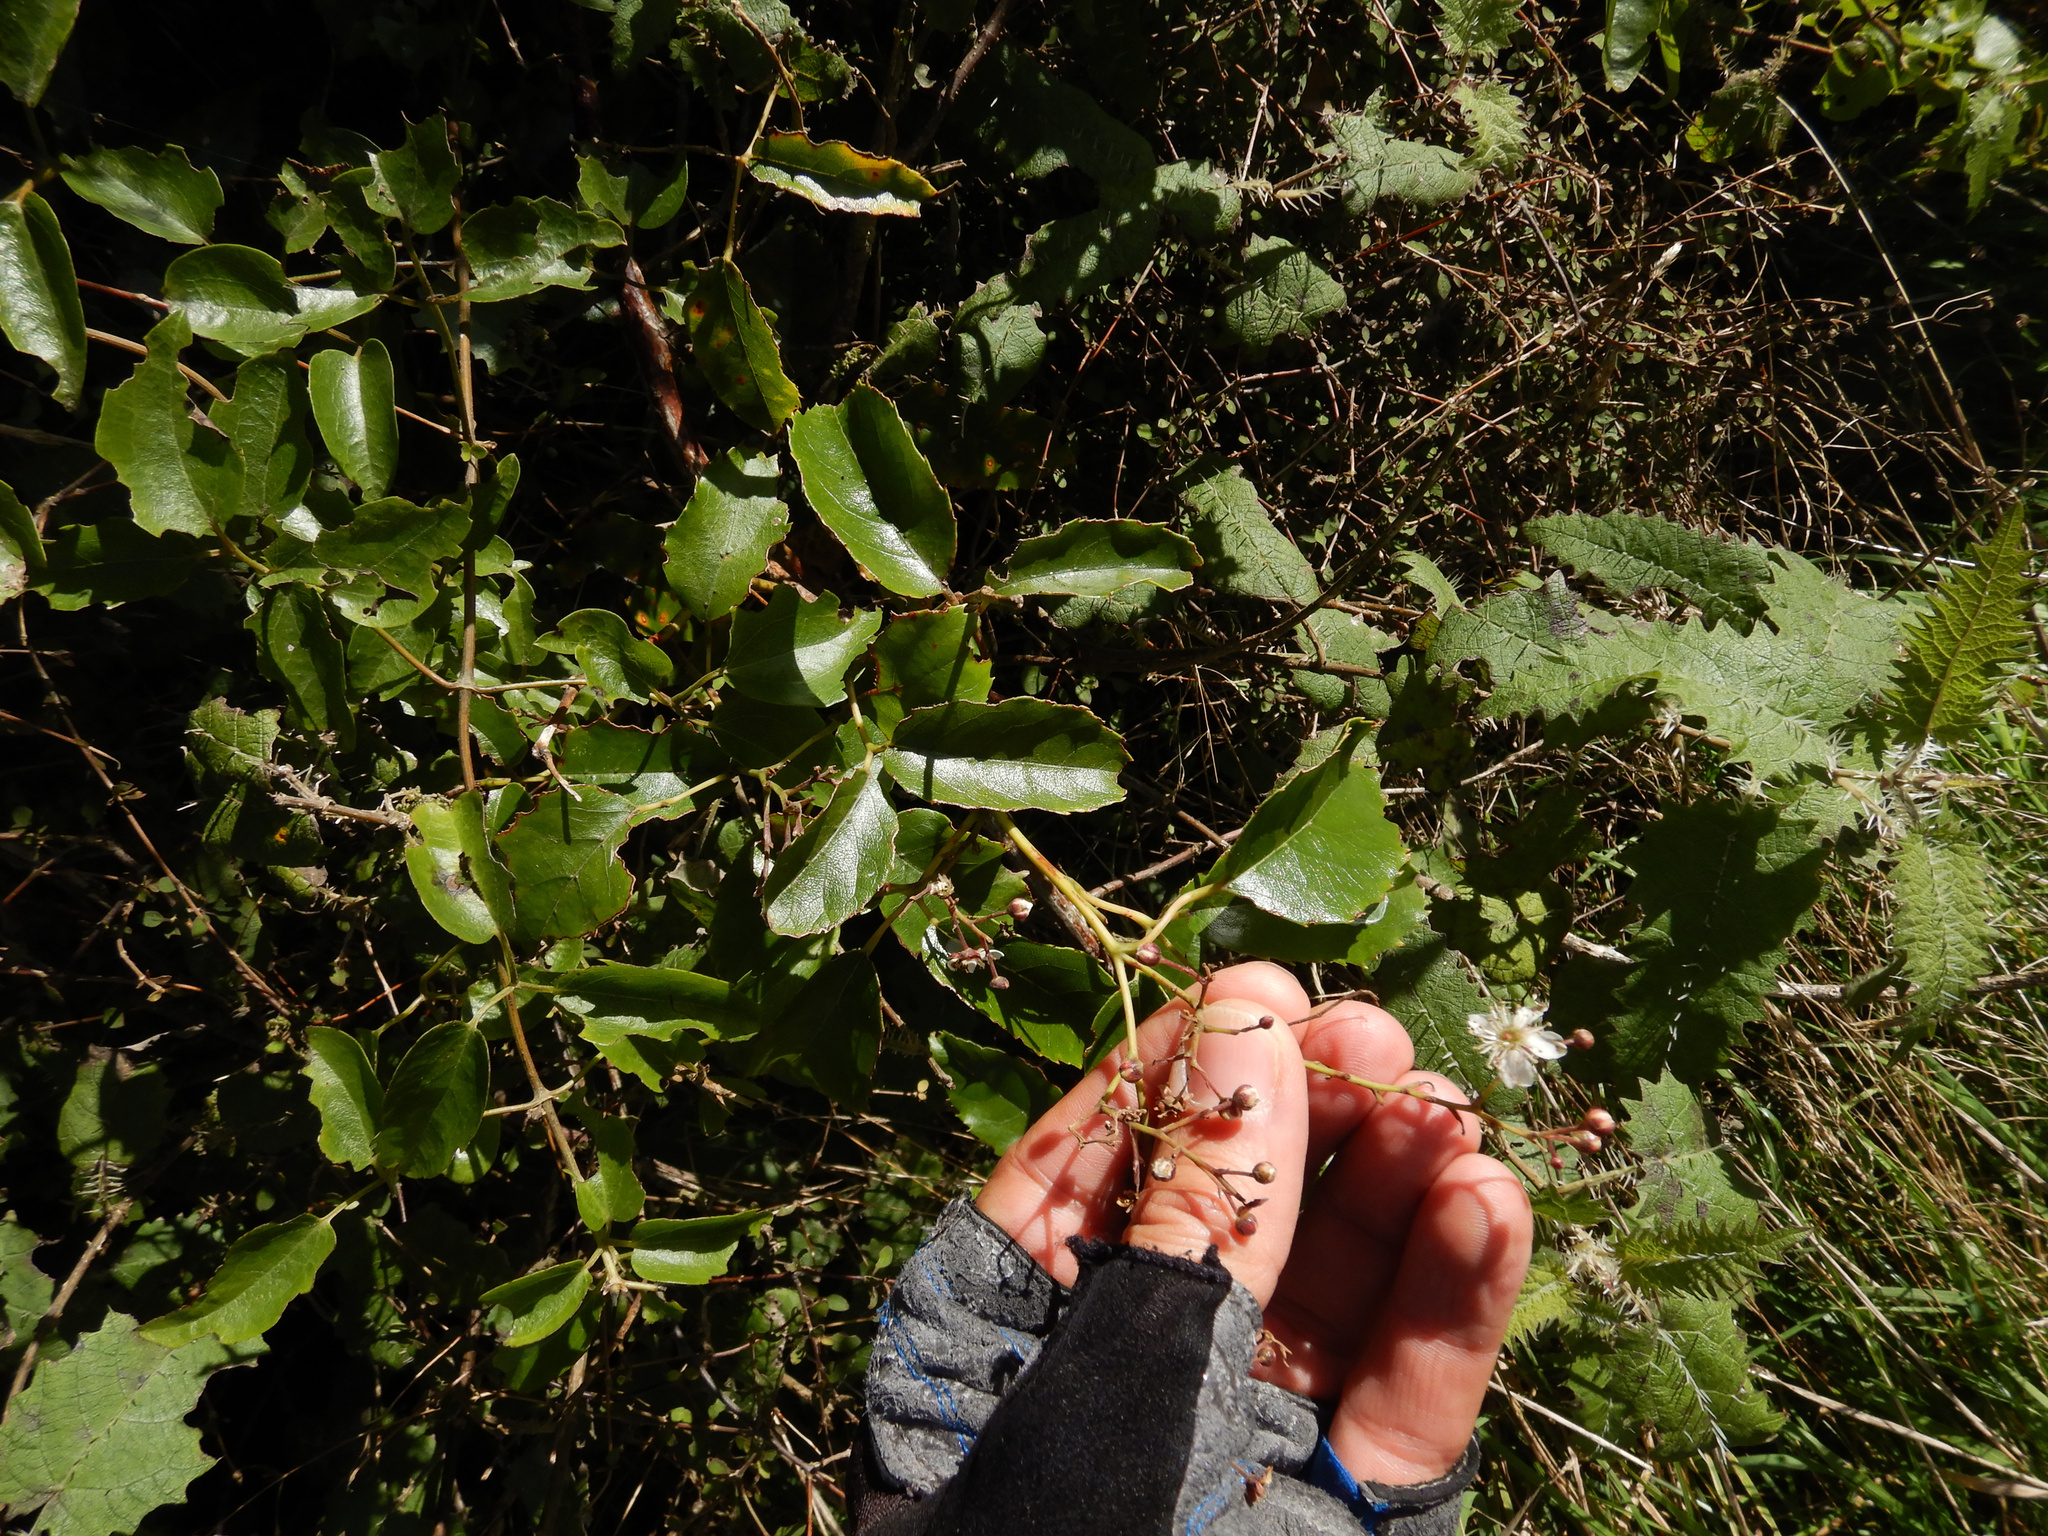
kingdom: Plantae
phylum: Tracheophyta
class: Magnoliopsida
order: Rosales
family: Rosaceae
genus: Rubus
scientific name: Rubus cissoides
